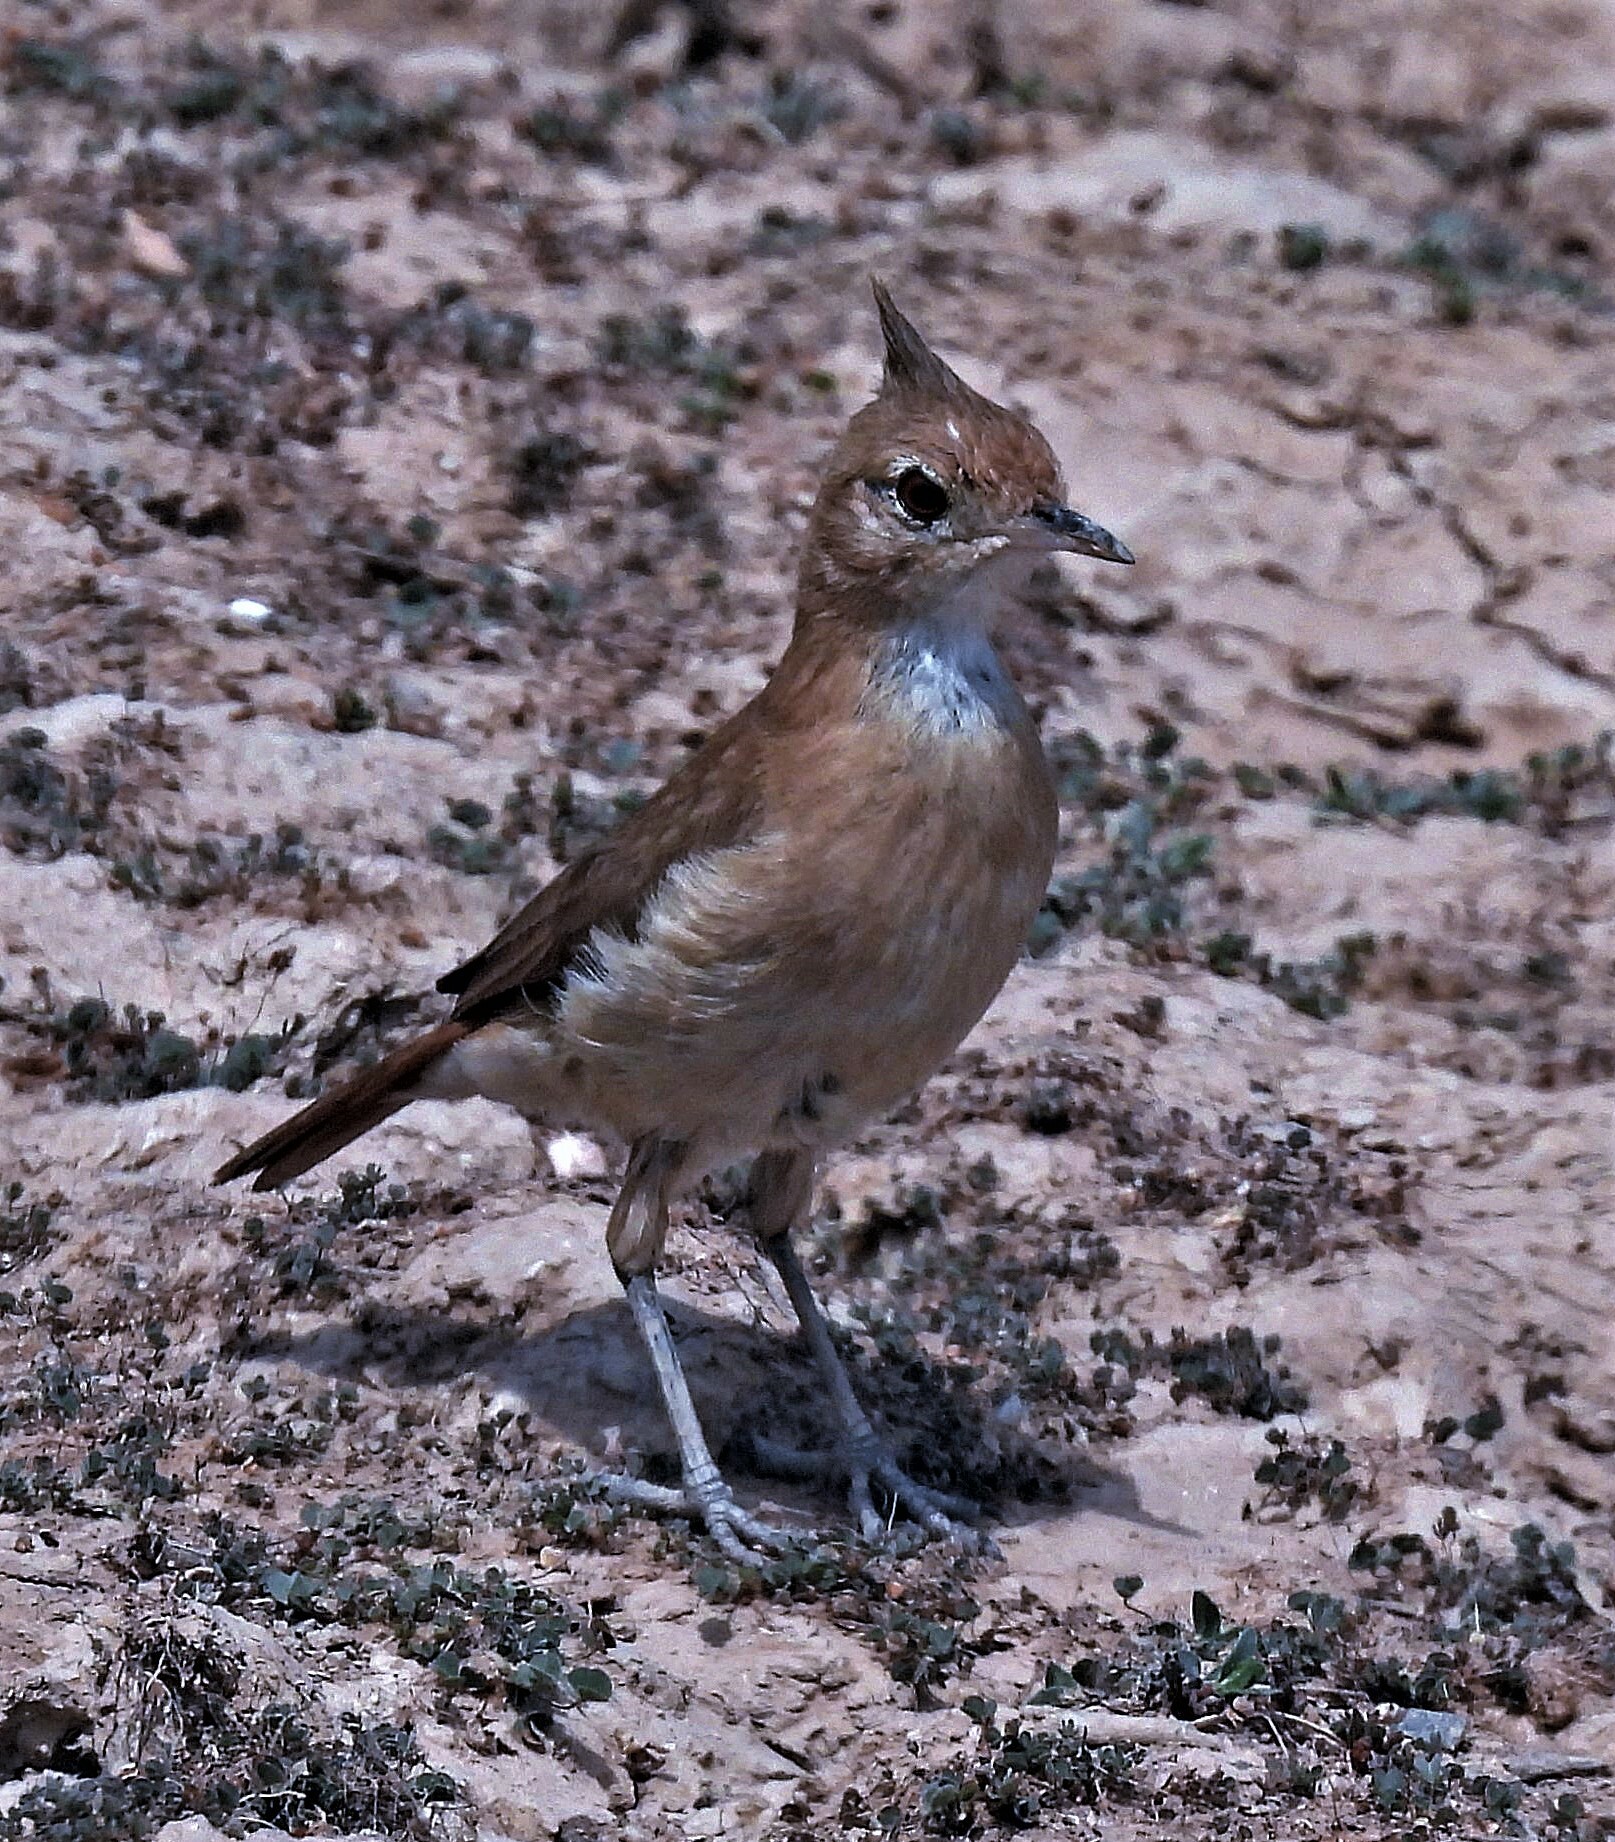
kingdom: Animalia
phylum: Chordata
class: Aves
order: Passeriformes
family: Furnariidae
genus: Furnarius
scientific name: Furnarius cristatus
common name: Crested hornero
